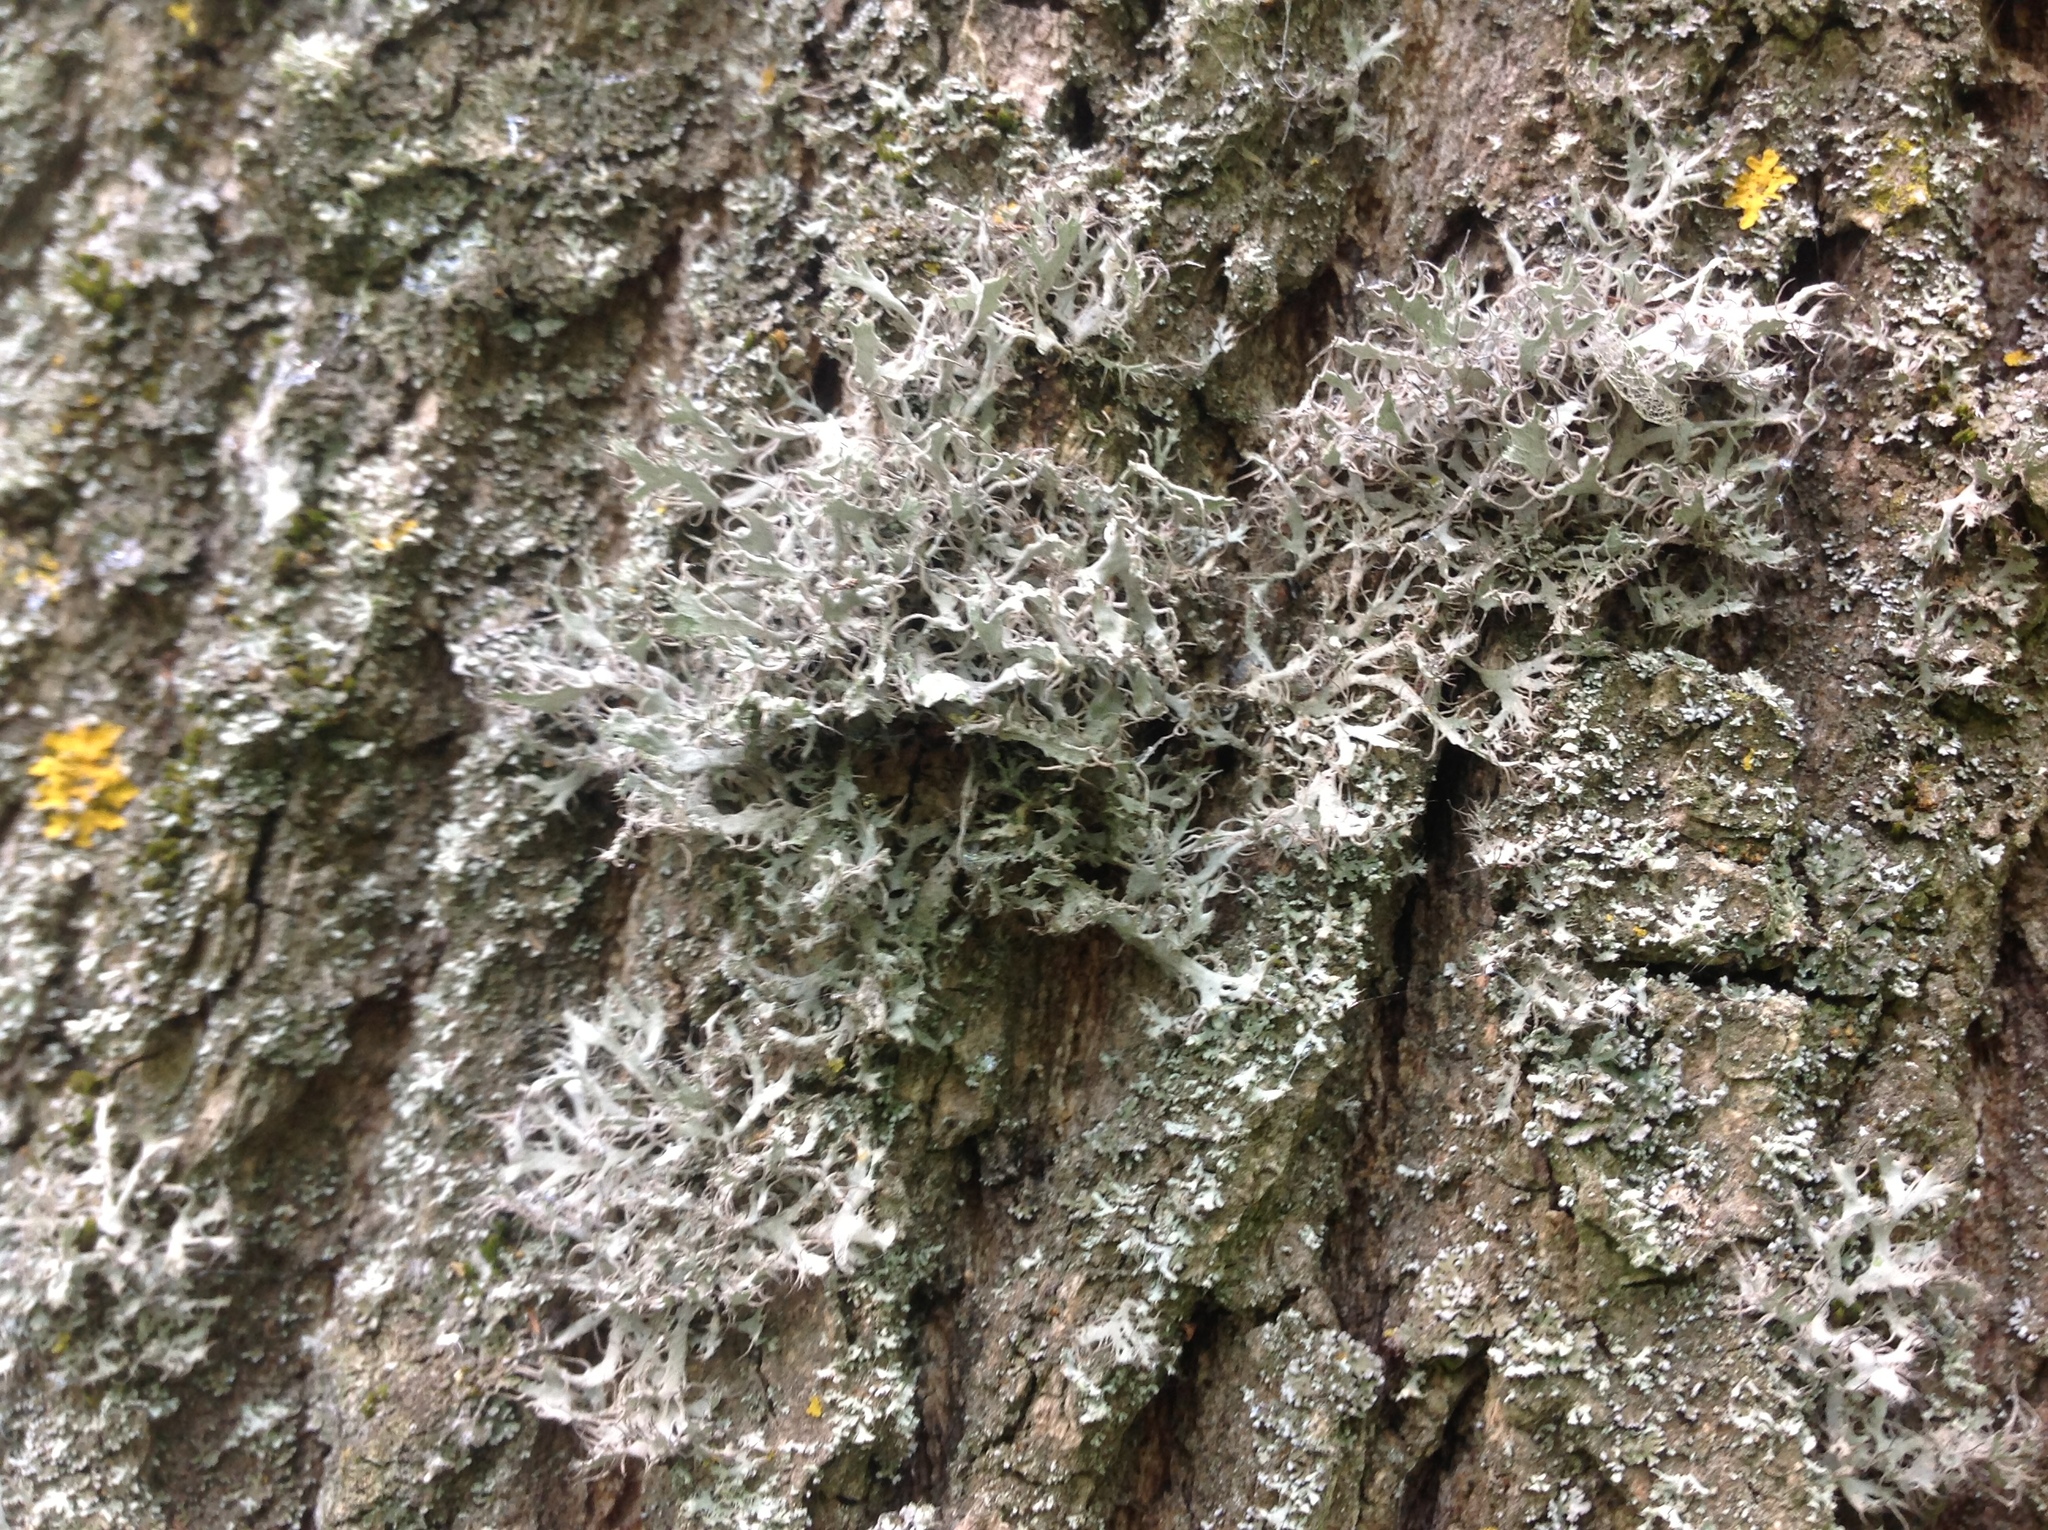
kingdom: Fungi
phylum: Ascomycota
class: Lecanoromycetes
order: Caliciales
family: Physciaceae
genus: Anaptychia
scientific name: Anaptychia ciliaris
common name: Great ciliated lichen
